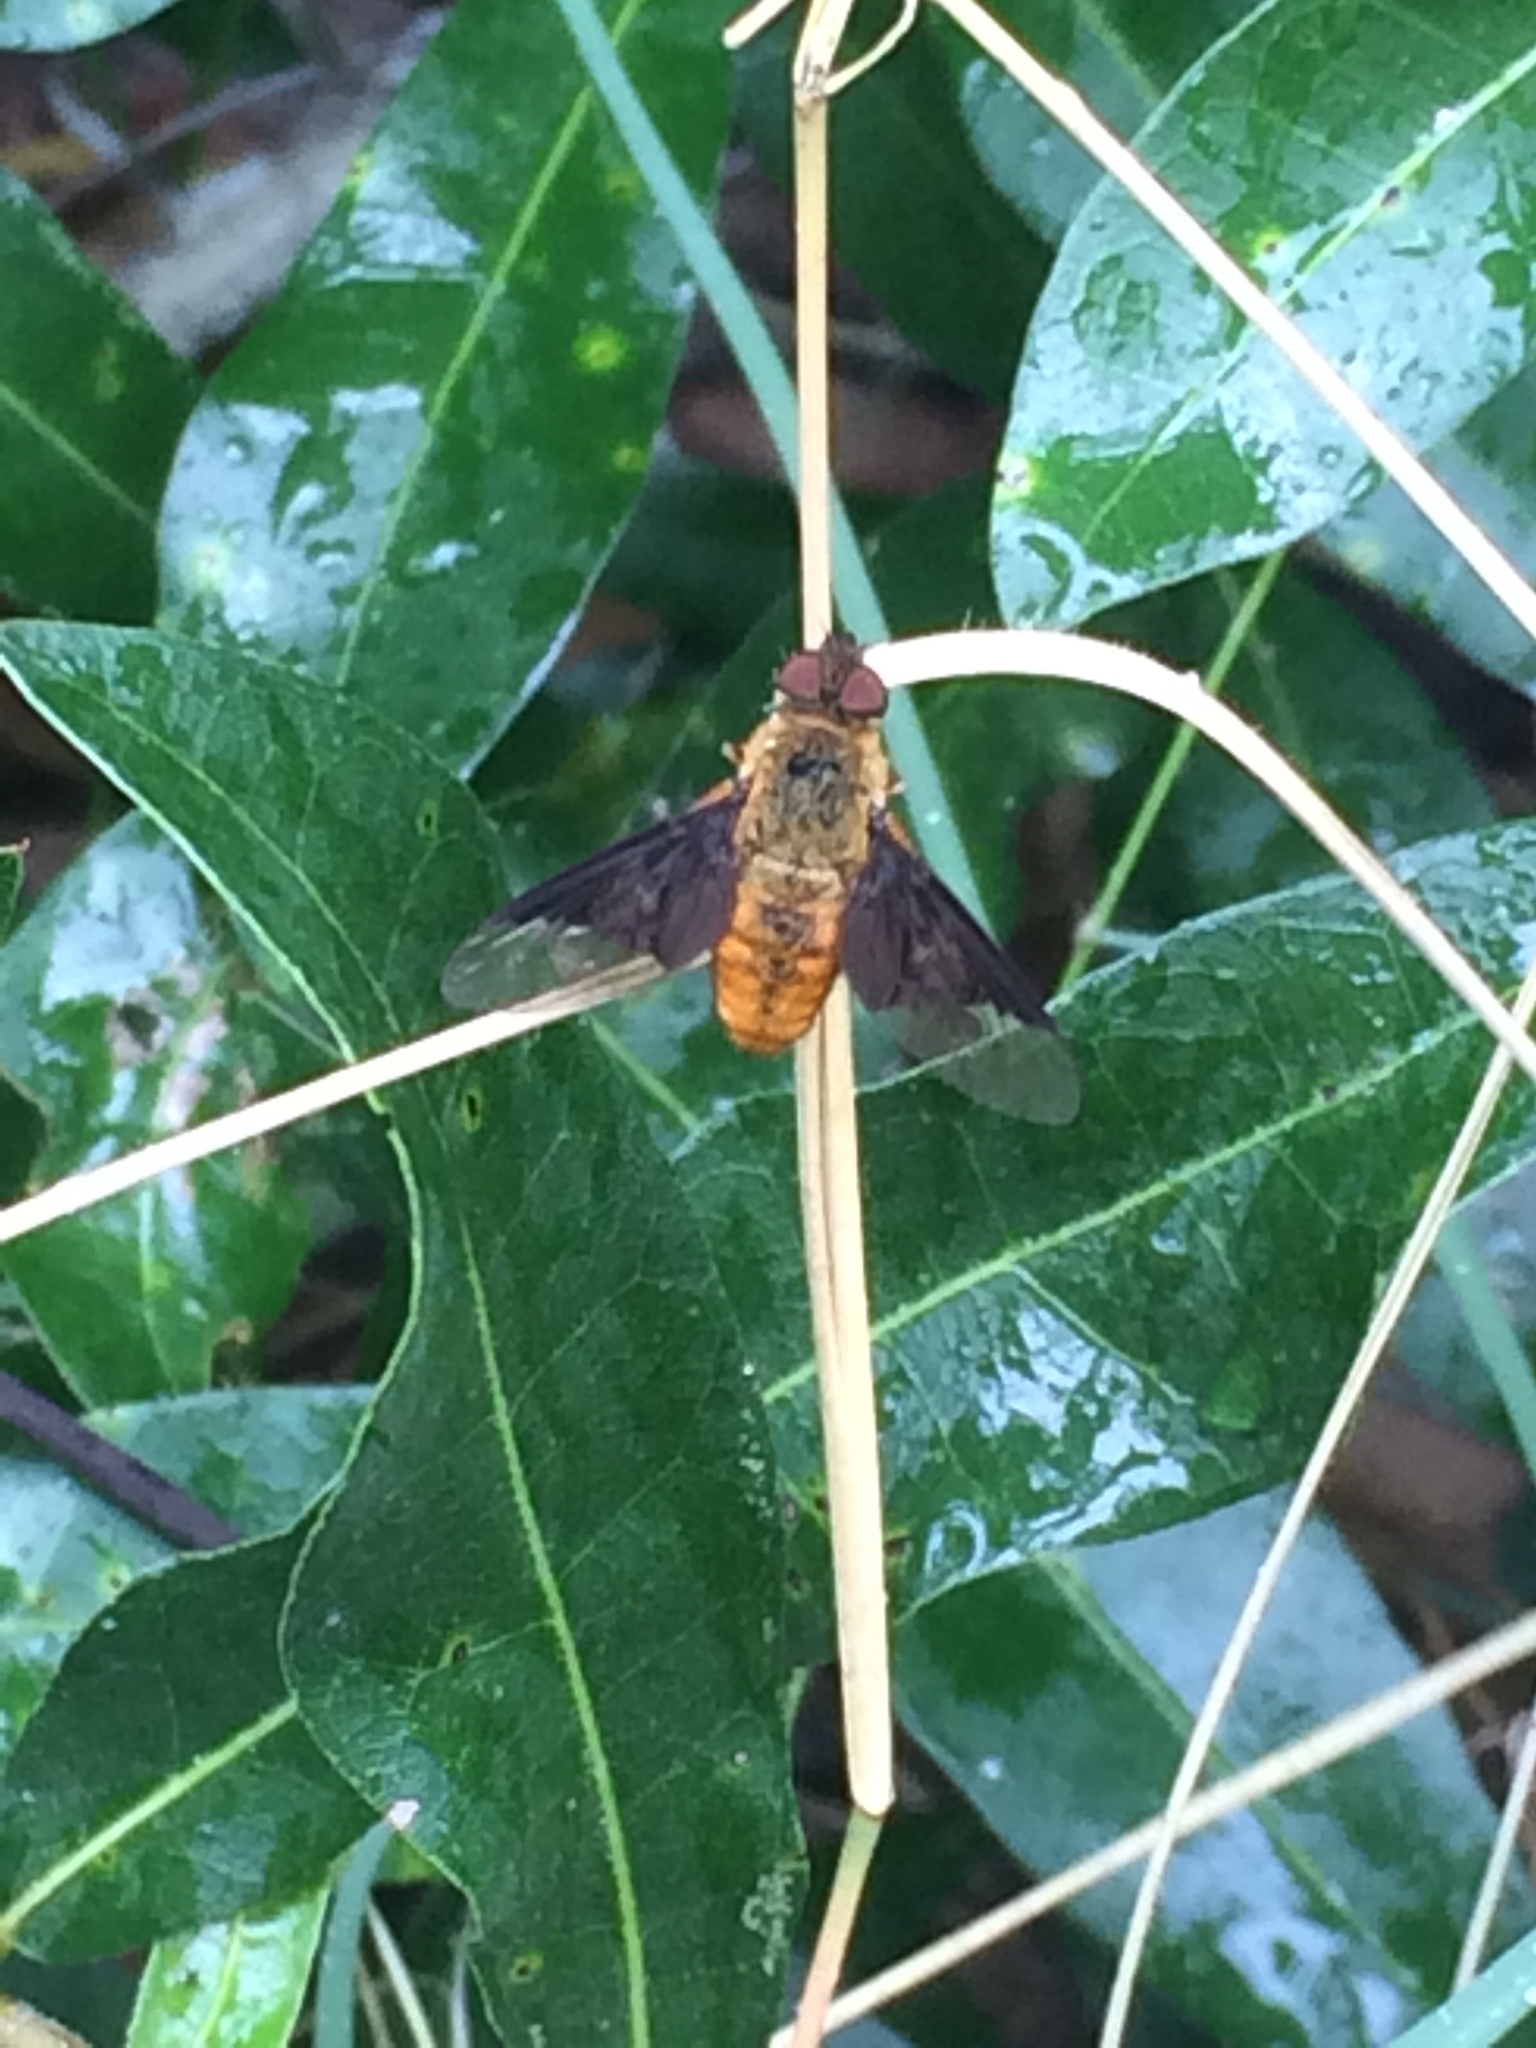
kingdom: Animalia
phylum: Arthropoda
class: Insecta
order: Diptera
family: Bombyliidae
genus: Chrysanthrax
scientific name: Chrysanthrax cypris
